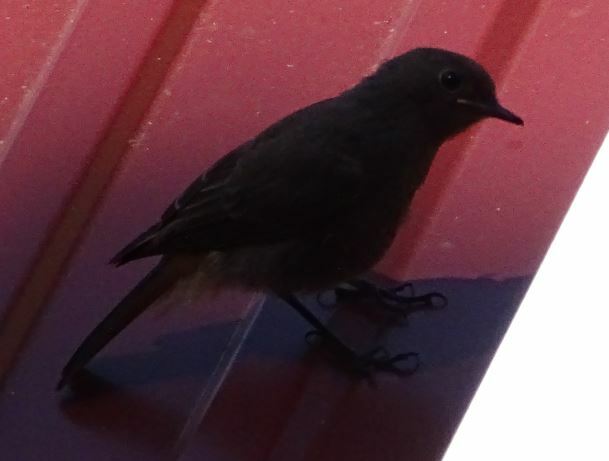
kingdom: Animalia
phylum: Chordata
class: Aves
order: Passeriformes
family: Muscicapidae
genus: Phoenicurus
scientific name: Phoenicurus ochruros
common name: Black redstart
